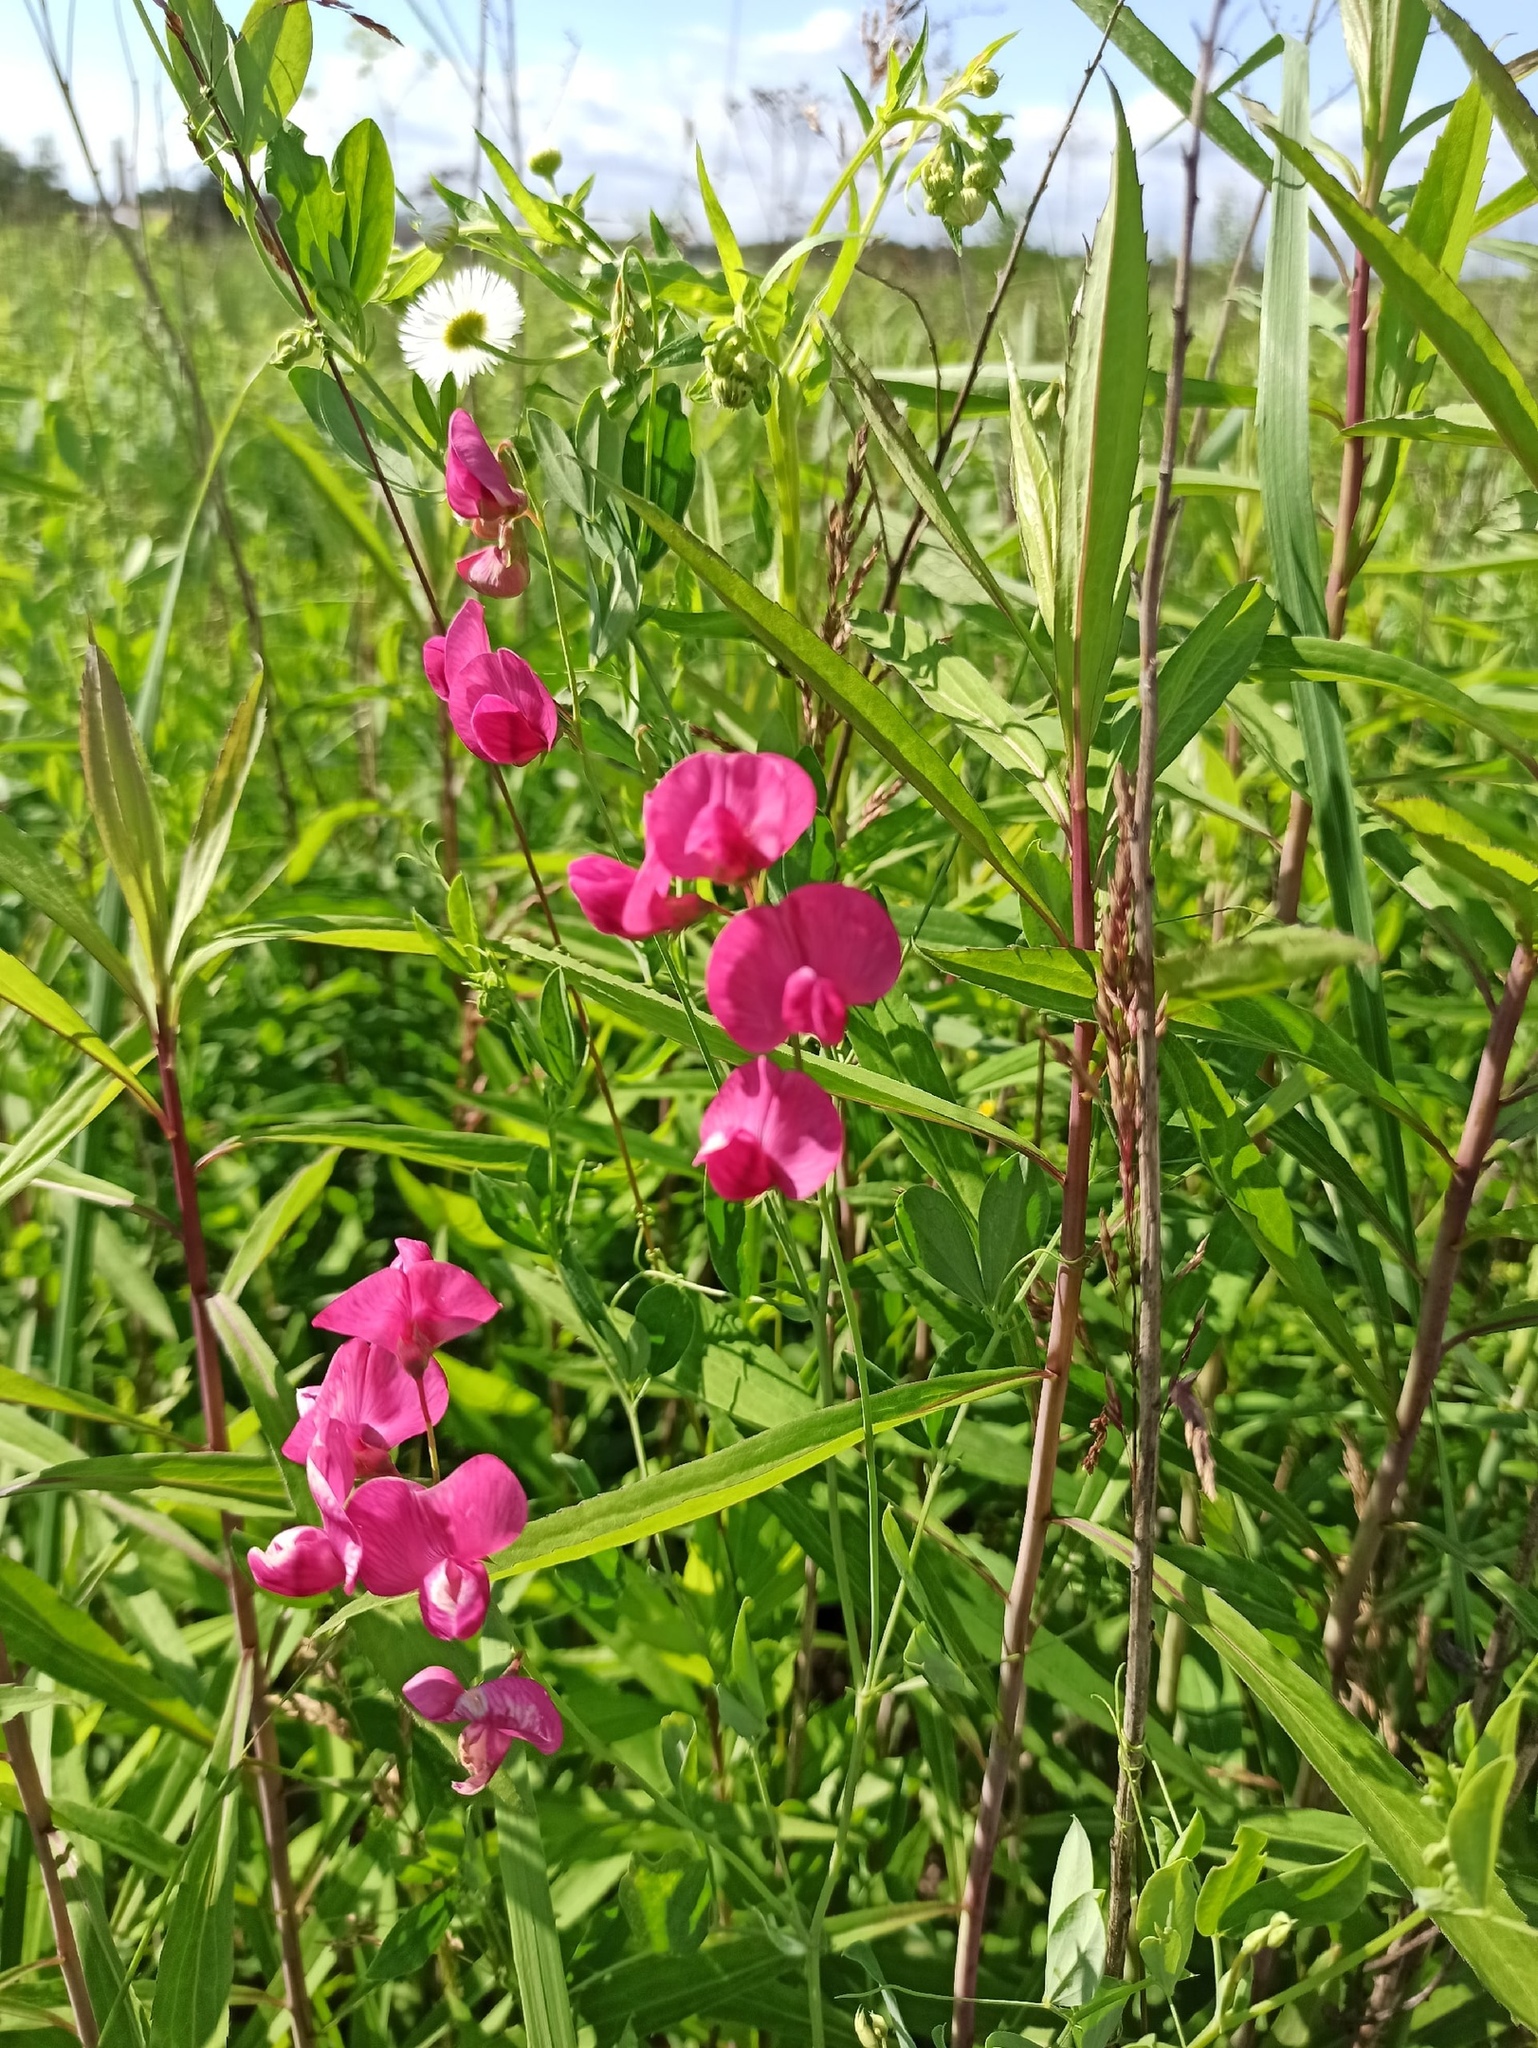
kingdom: Plantae
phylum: Tracheophyta
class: Magnoliopsida
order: Fabales
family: Fabaceae
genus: Lathyrus
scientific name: Lathyrus tuberosus
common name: Tuberous pea
